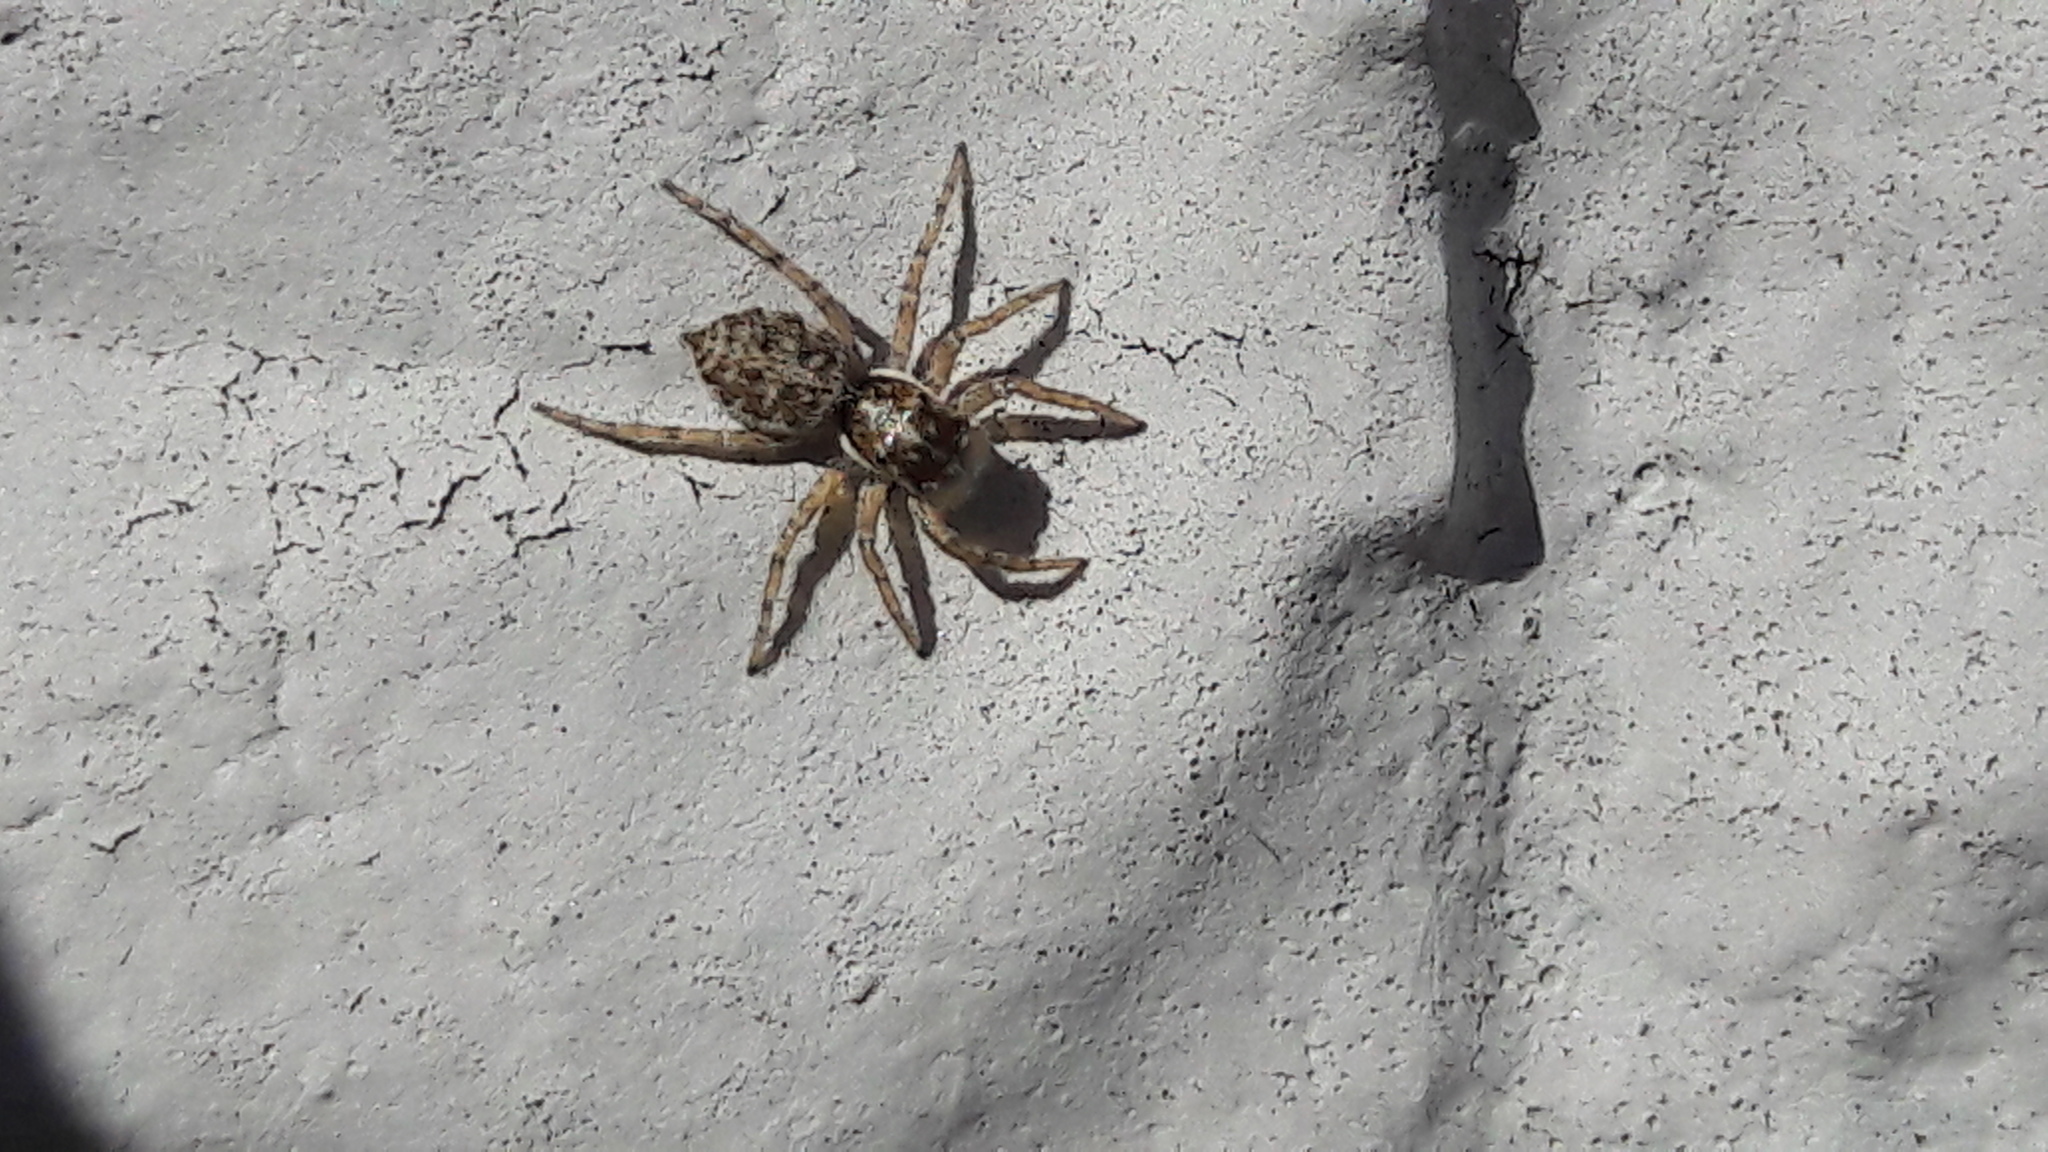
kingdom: Animalia
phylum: Arthropoda
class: Arachnida
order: Araneae
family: Salticidae
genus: Menemerus
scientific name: Menemerus semilimbatus
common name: Jumping spider
